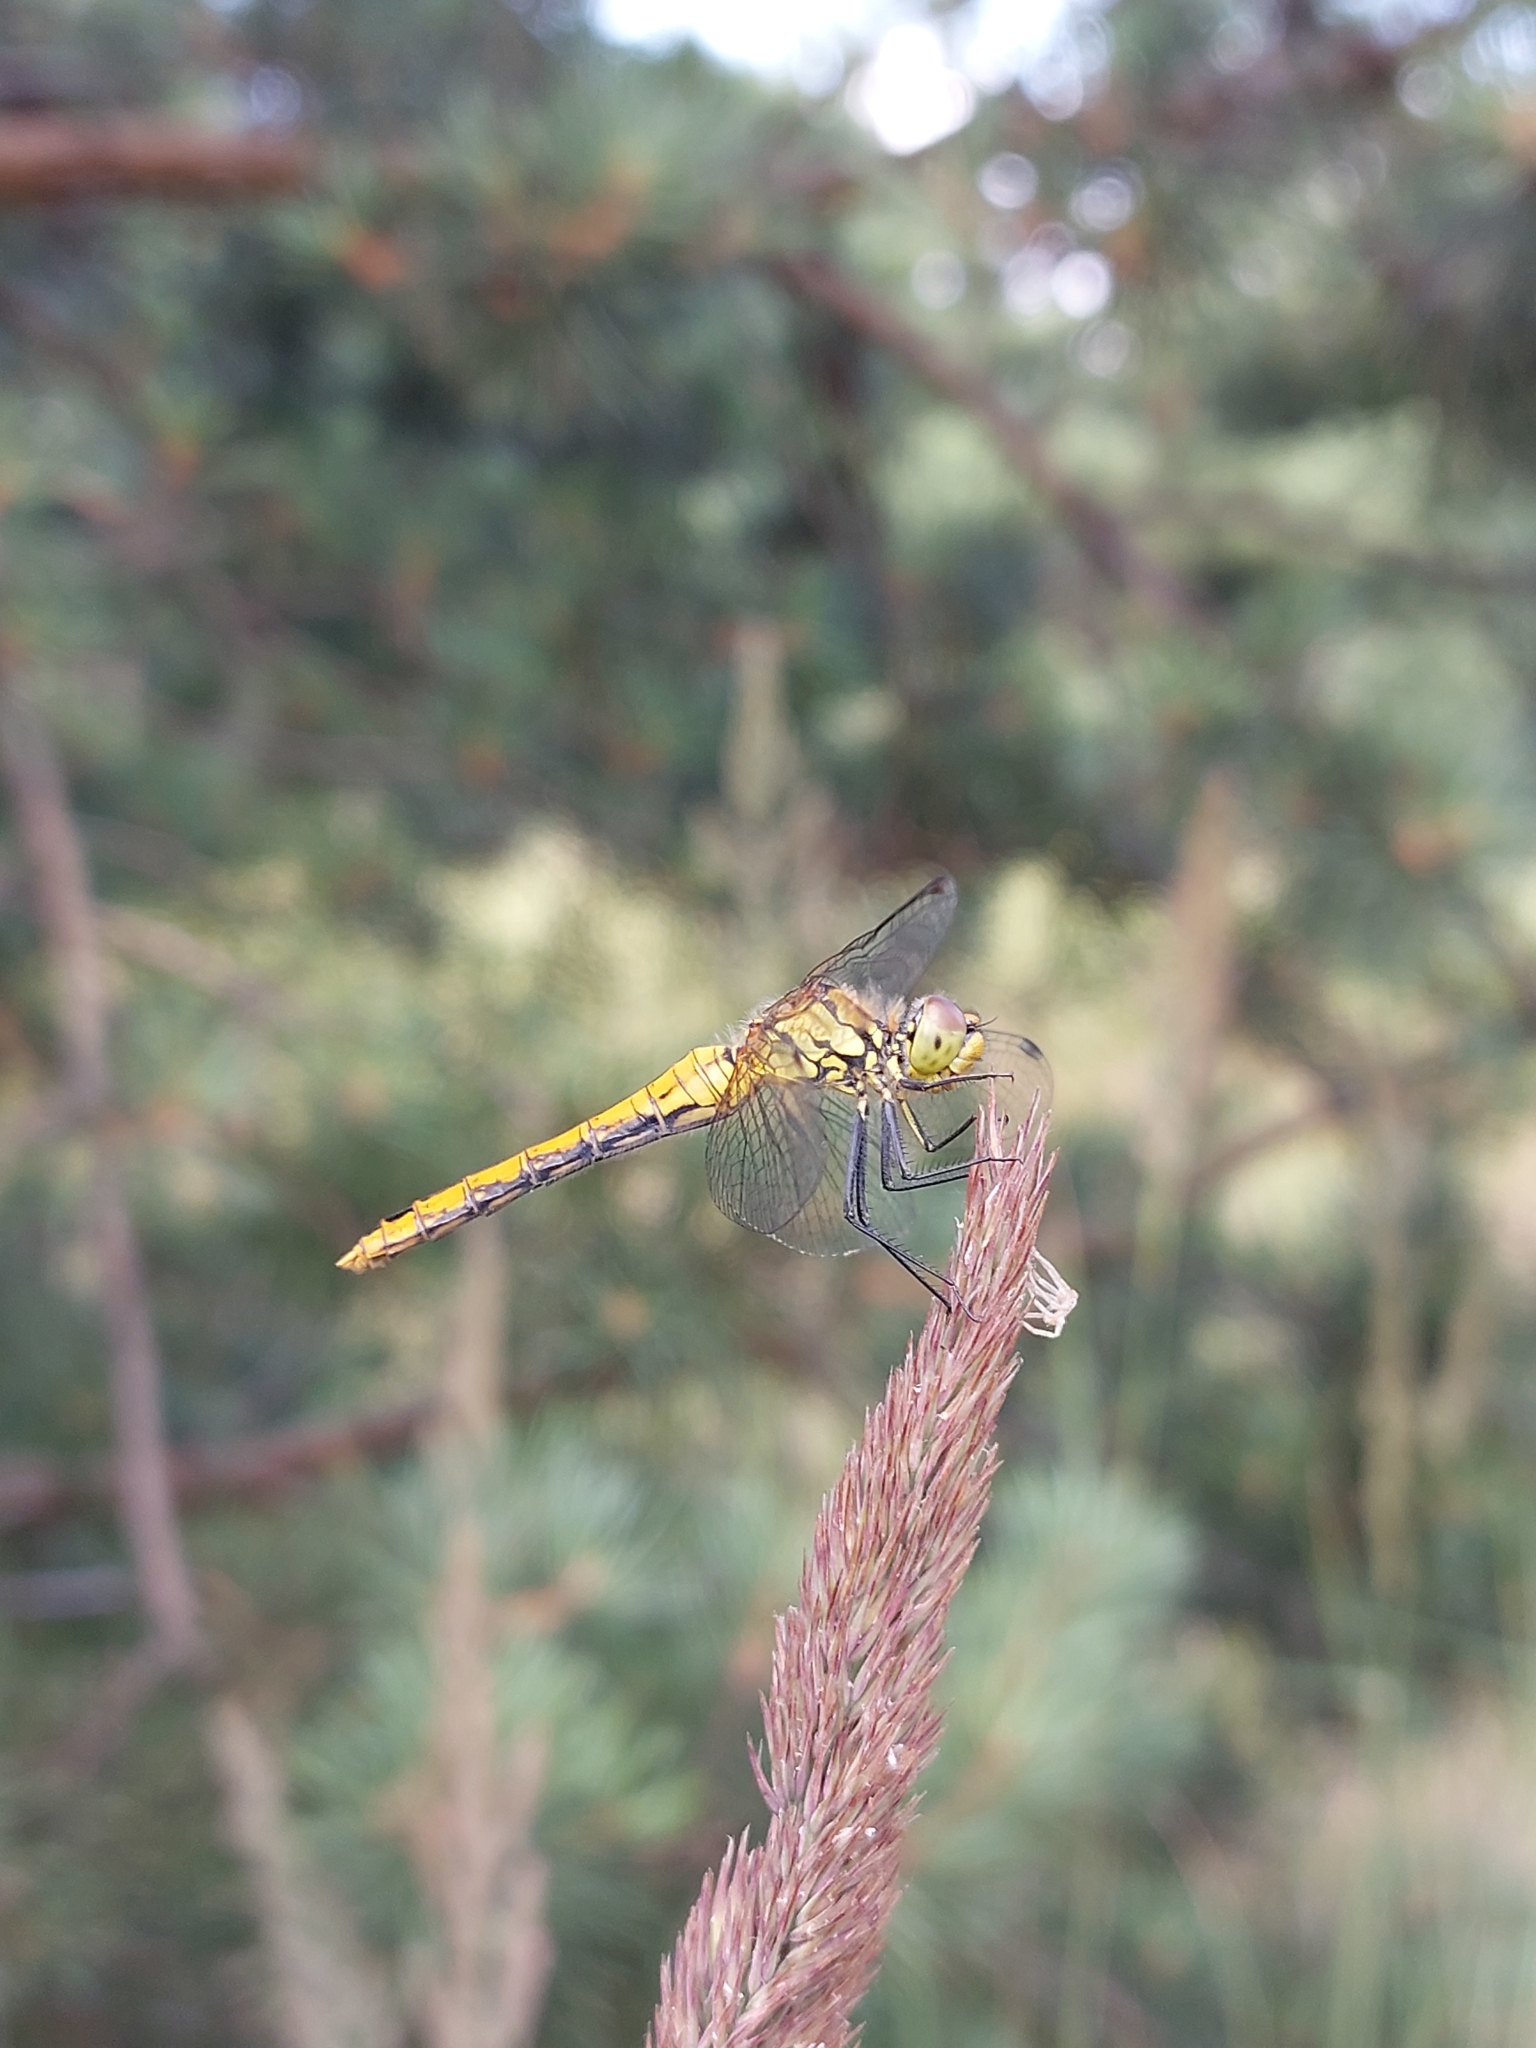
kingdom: Animalia
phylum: Arthropoda
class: Insecta
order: Odonata
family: Libellulidae
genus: Sympetrum
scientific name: Sympetrum sanguineum
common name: Ruddy darter
